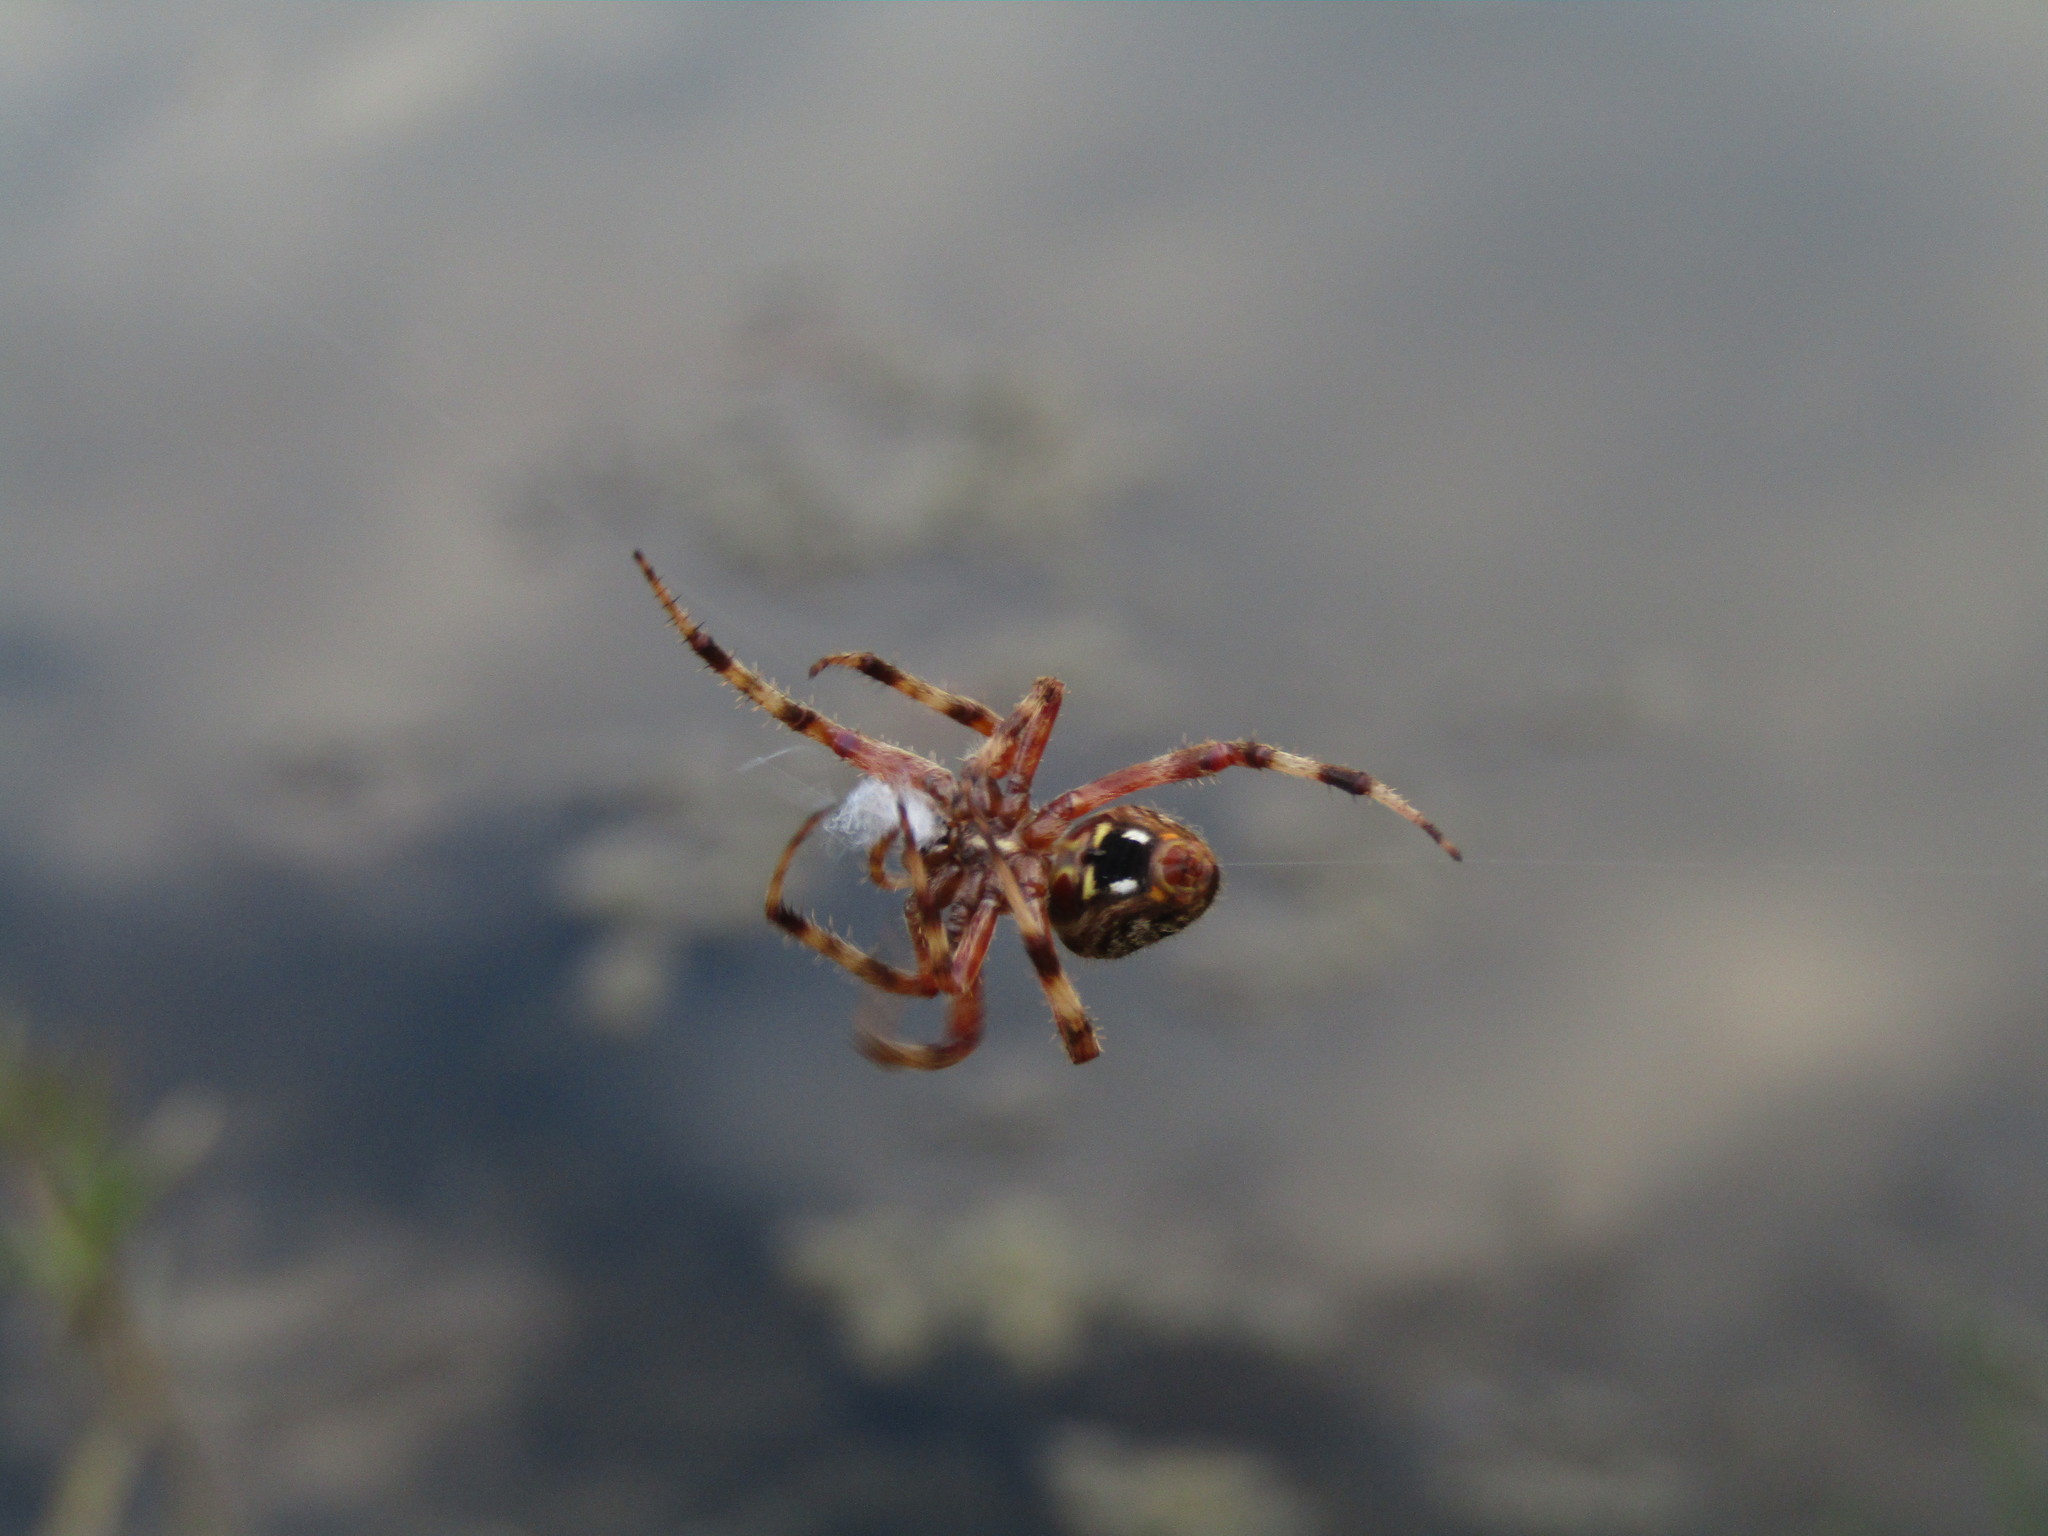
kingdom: Animalia
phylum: Arthropoda
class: Arachnida
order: Araneae
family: Araneidae
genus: Neoscona
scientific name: Neoscona crucifera
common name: Spotted orbweaver
